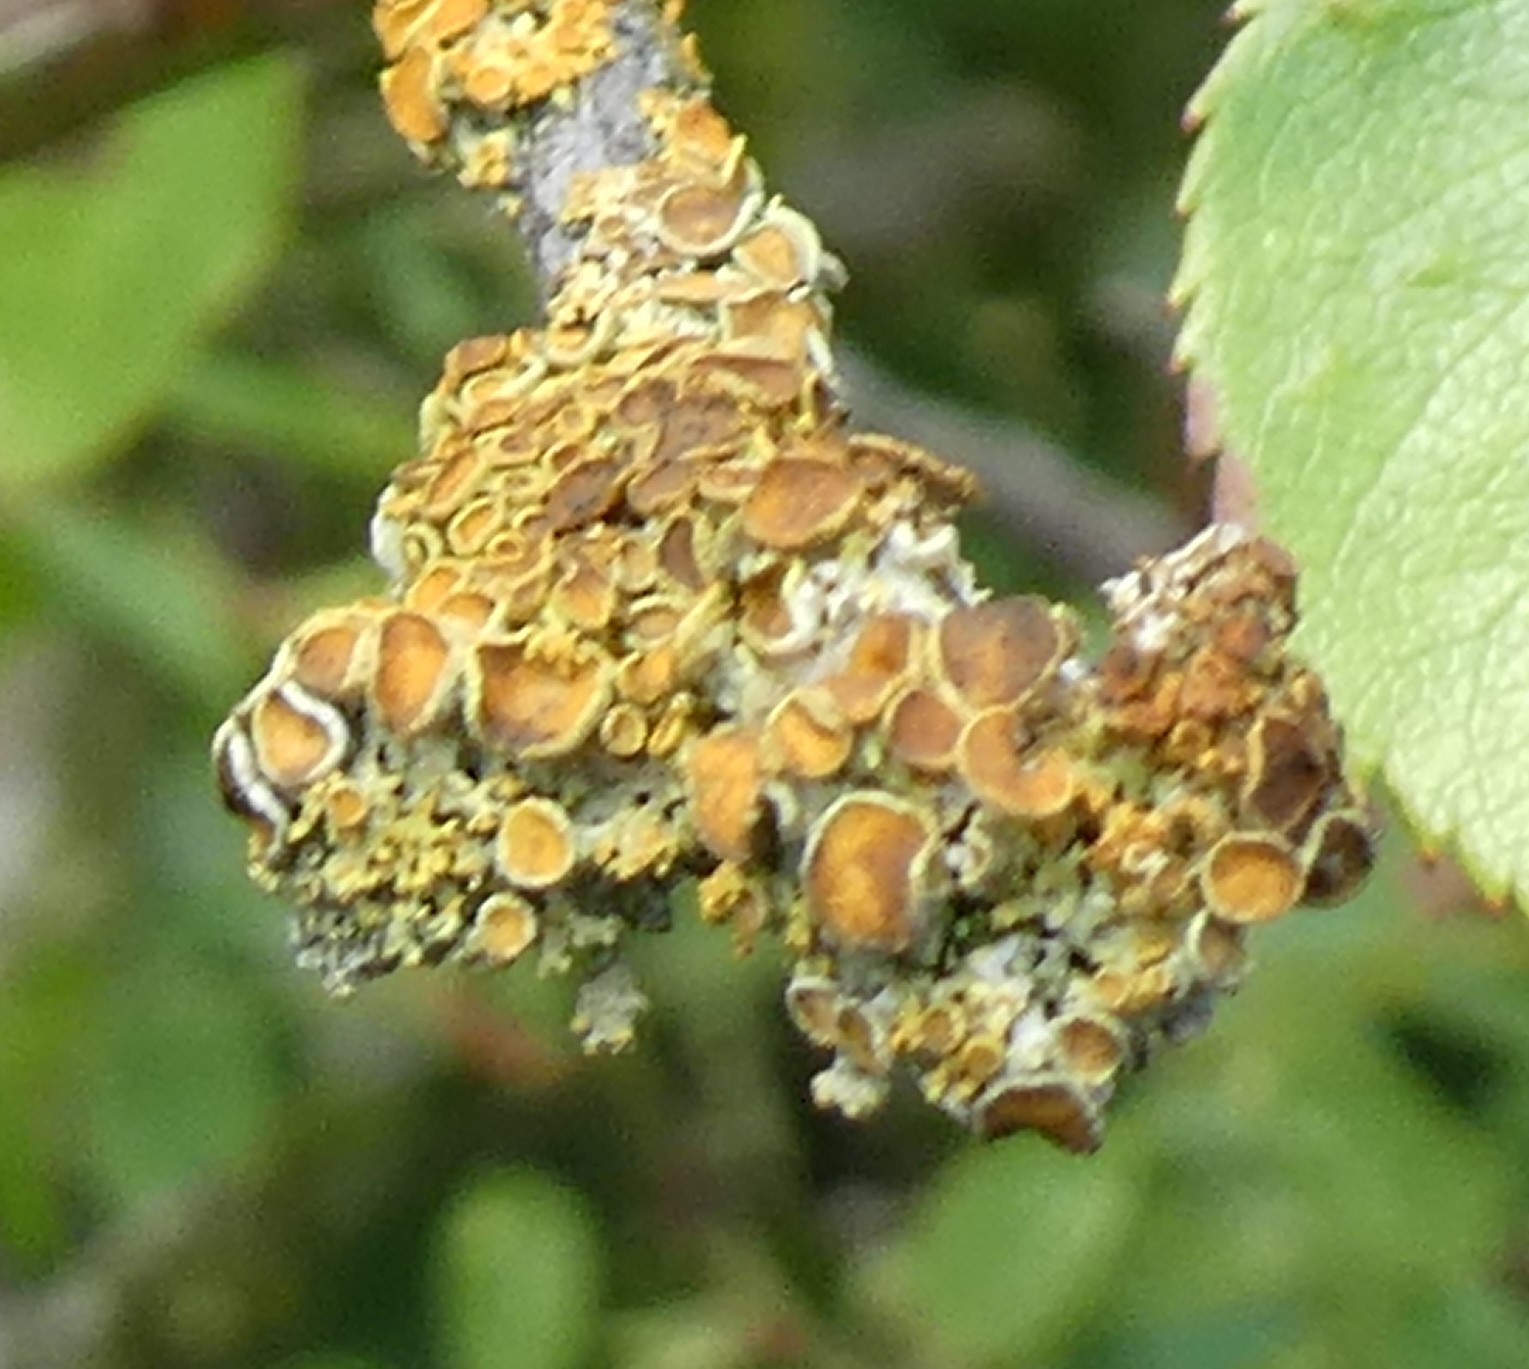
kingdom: Fungi
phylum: Ascomycota
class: Lecanoromycetes
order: Teloschistales
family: Teloschistaceae
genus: Xanthoria
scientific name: Xanthoria parietina
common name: Common orange lichen
